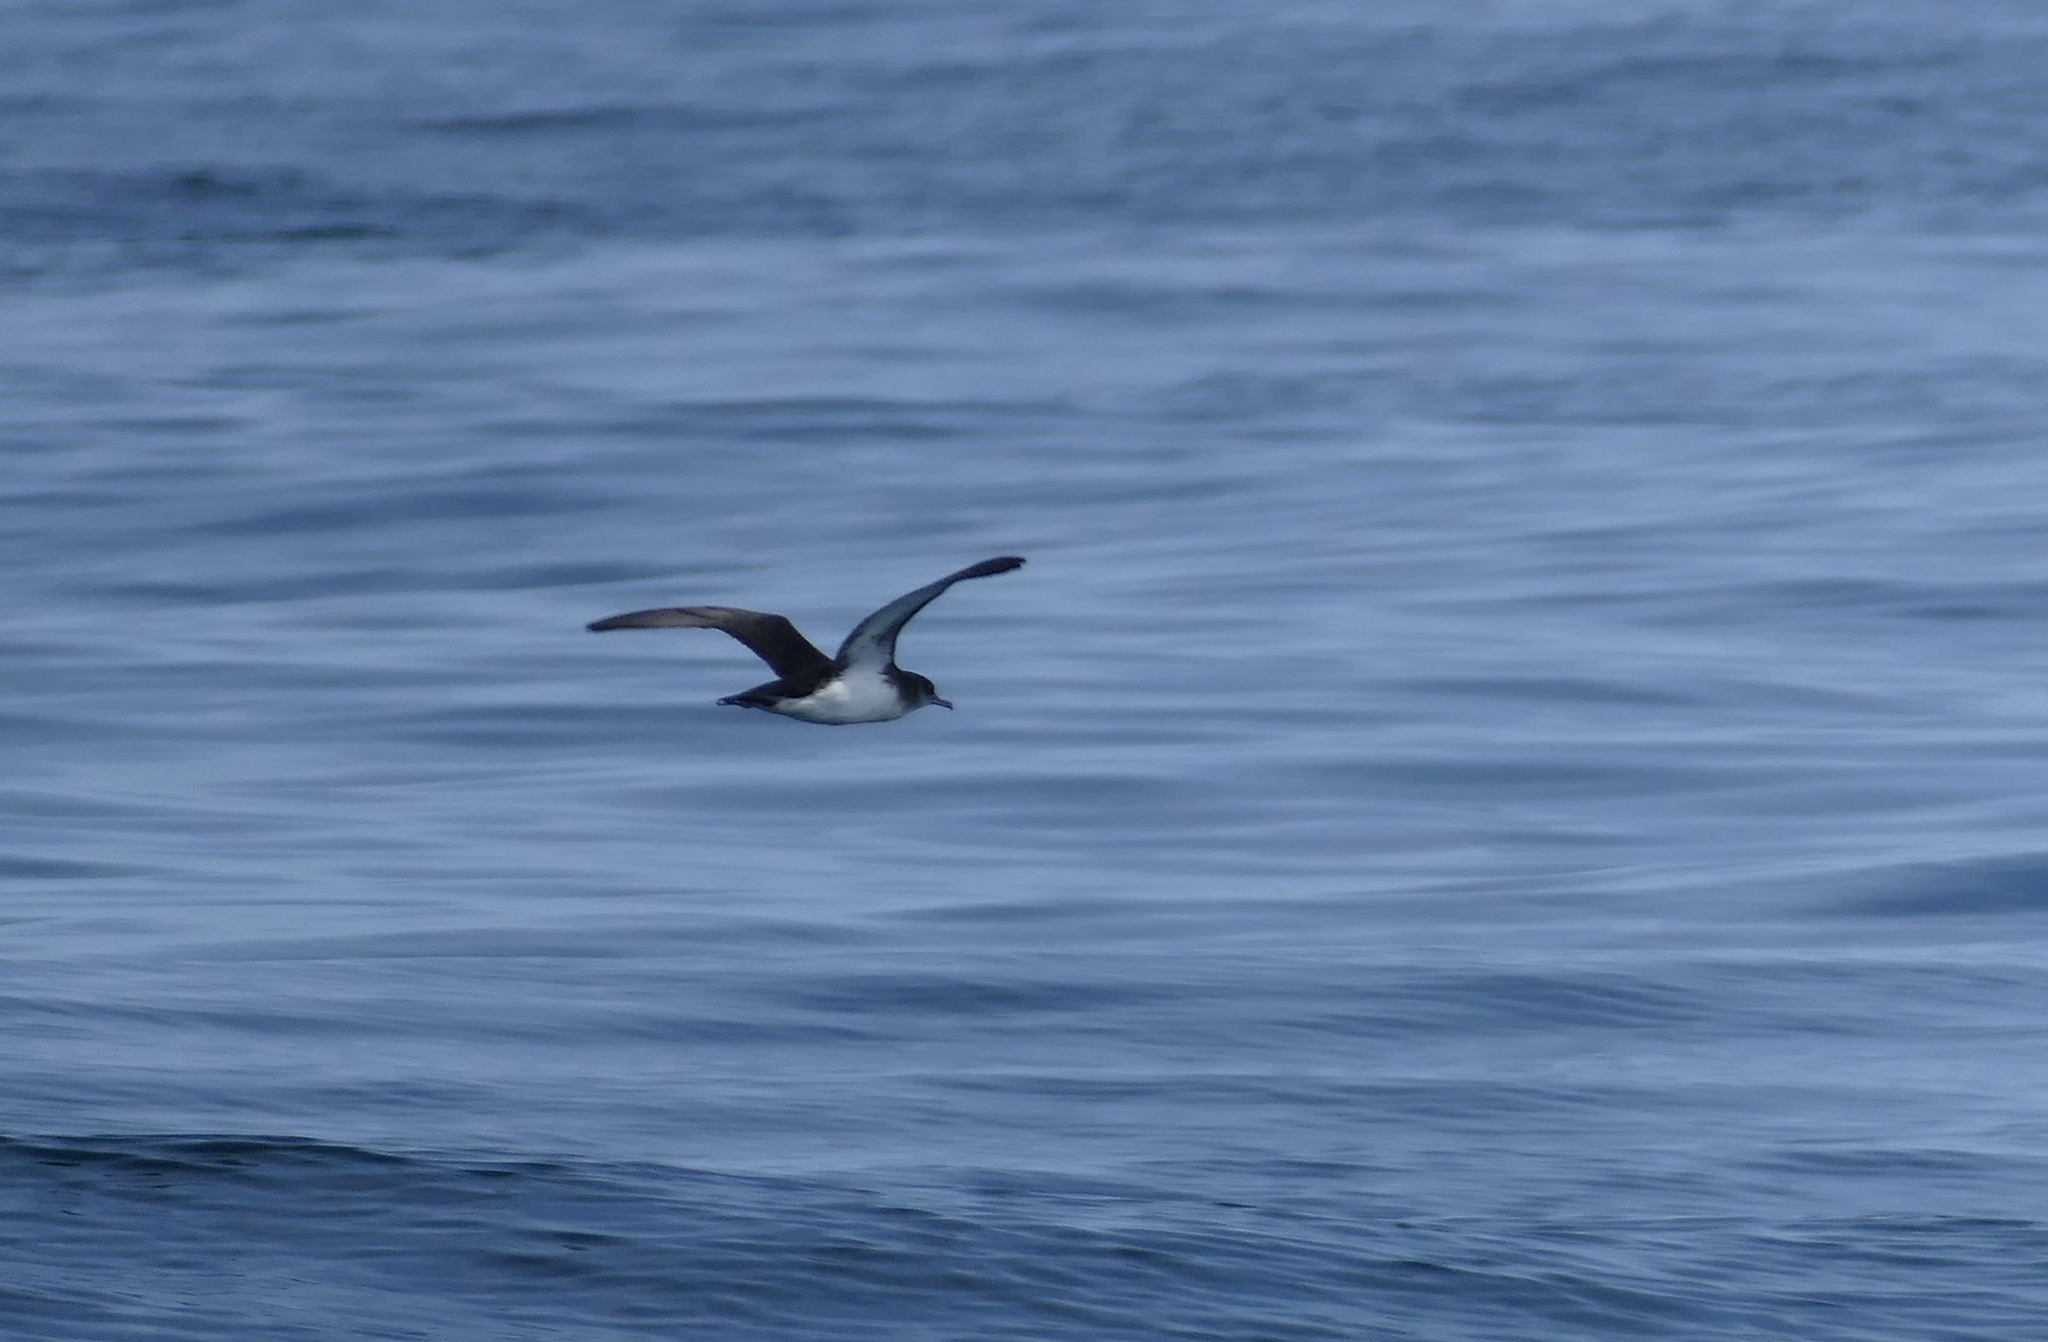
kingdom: Animalia
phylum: Chordata
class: Aves
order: Procellariiformes
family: Procellariidae
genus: Puffinus
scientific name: Puffinus puffinus
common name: Manx shearwater
